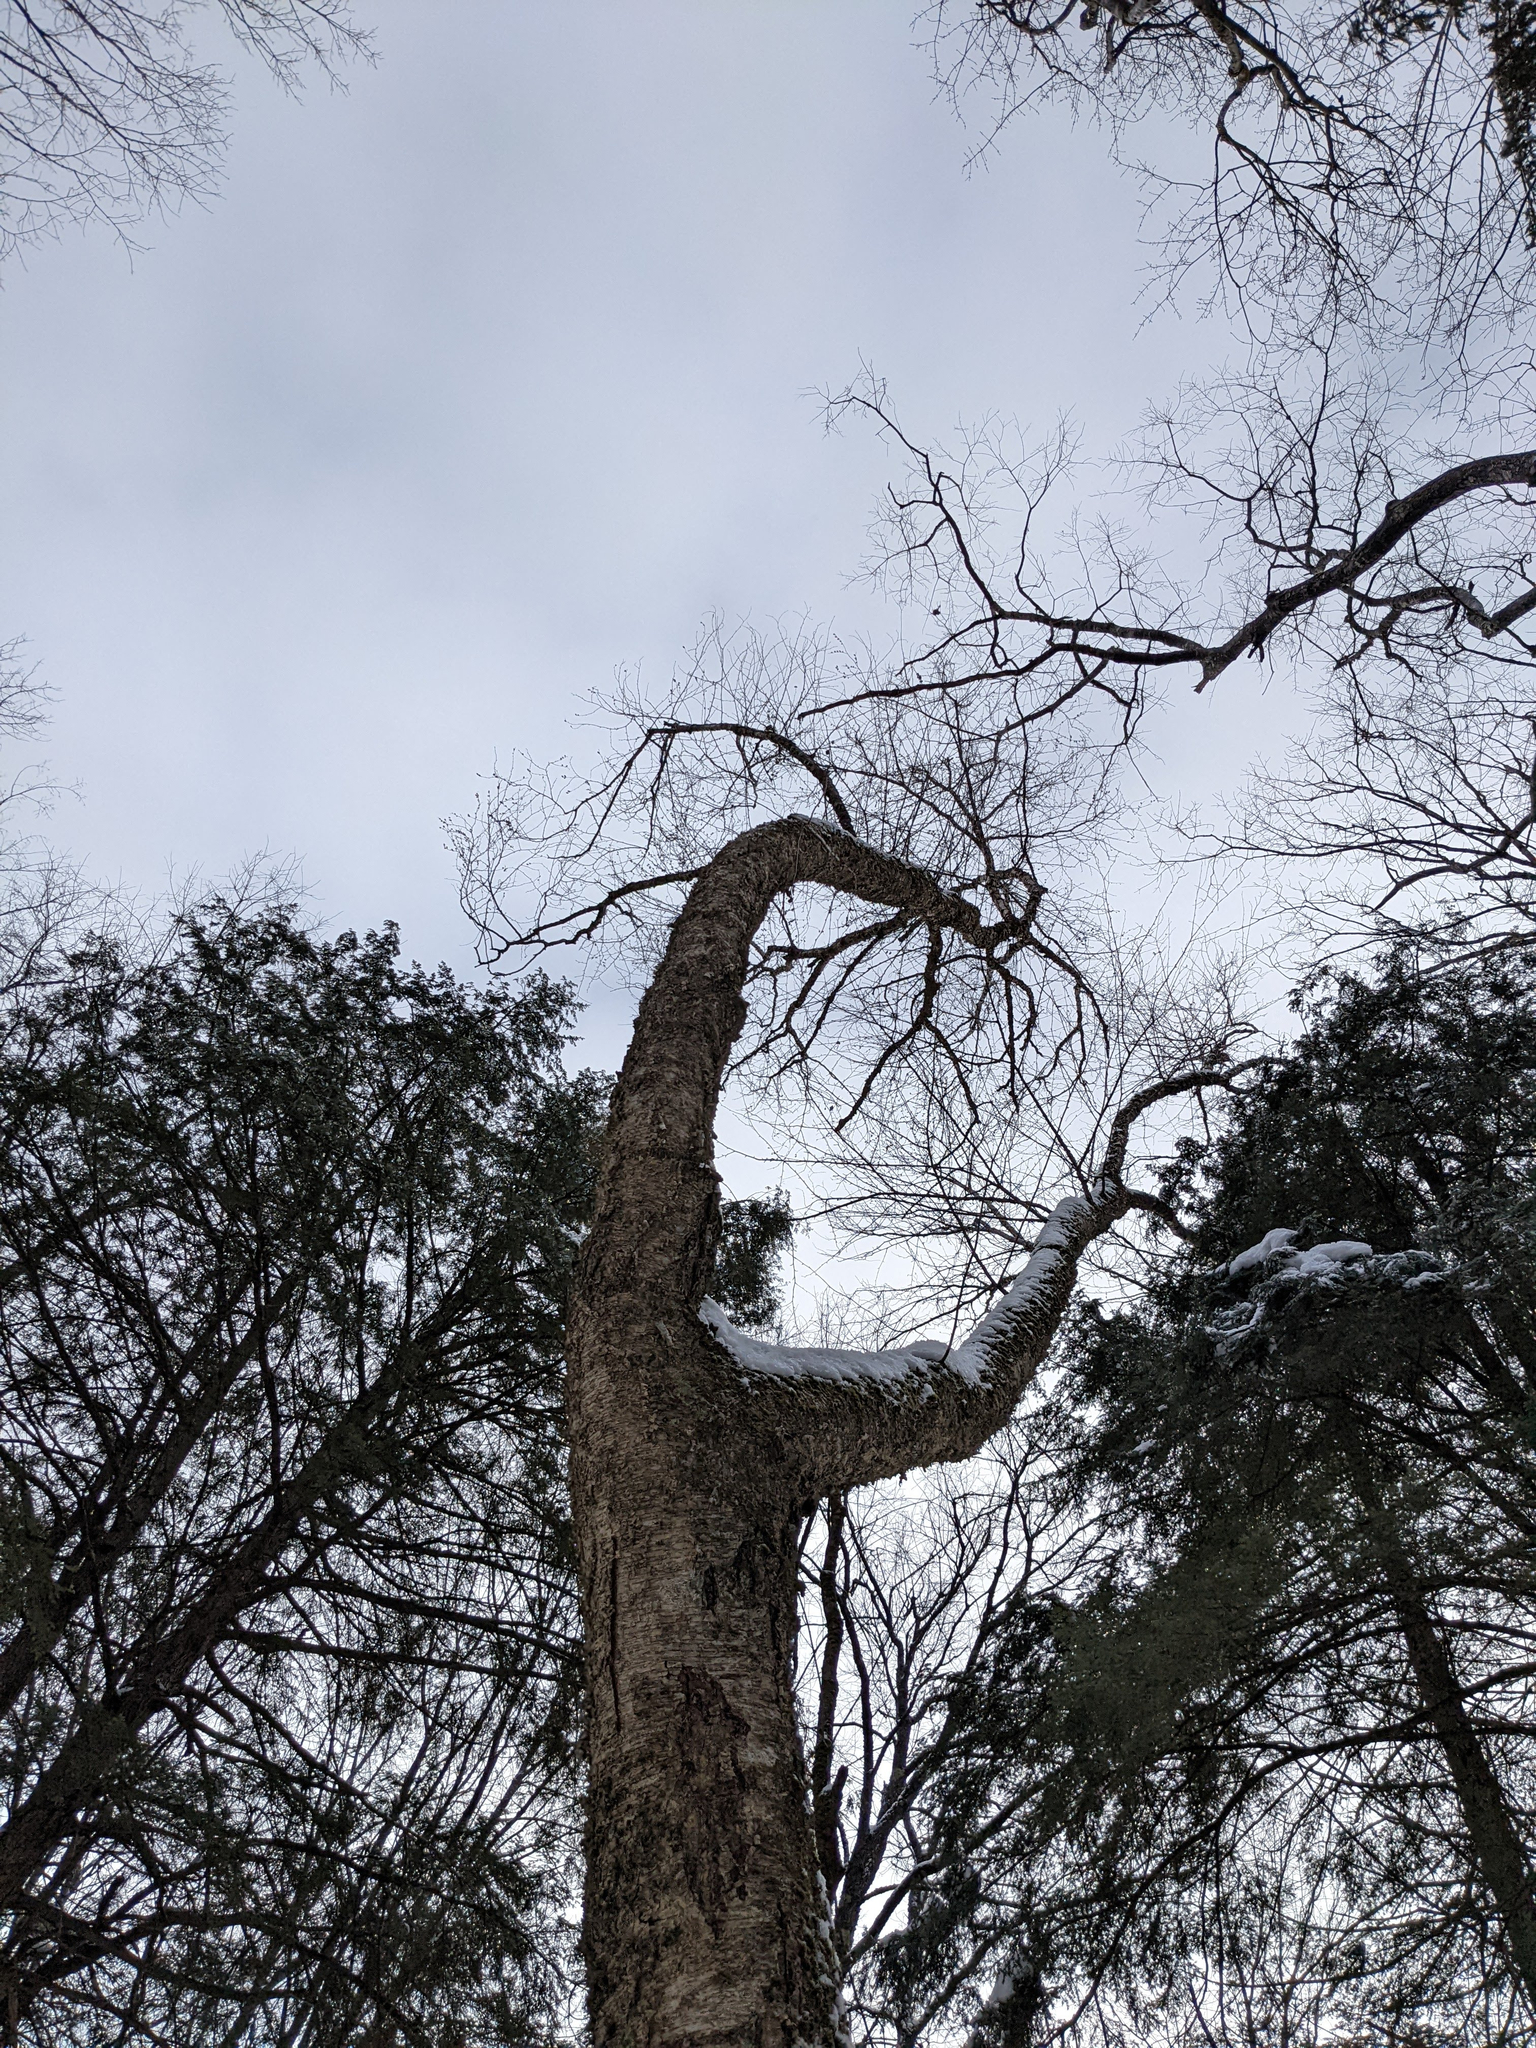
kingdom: Plantae
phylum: Tracheophyta
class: Magnoliopsida
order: Fagales
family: Betulaceae
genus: Betula
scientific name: Betula alleghaniensis
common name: Yellow birch
